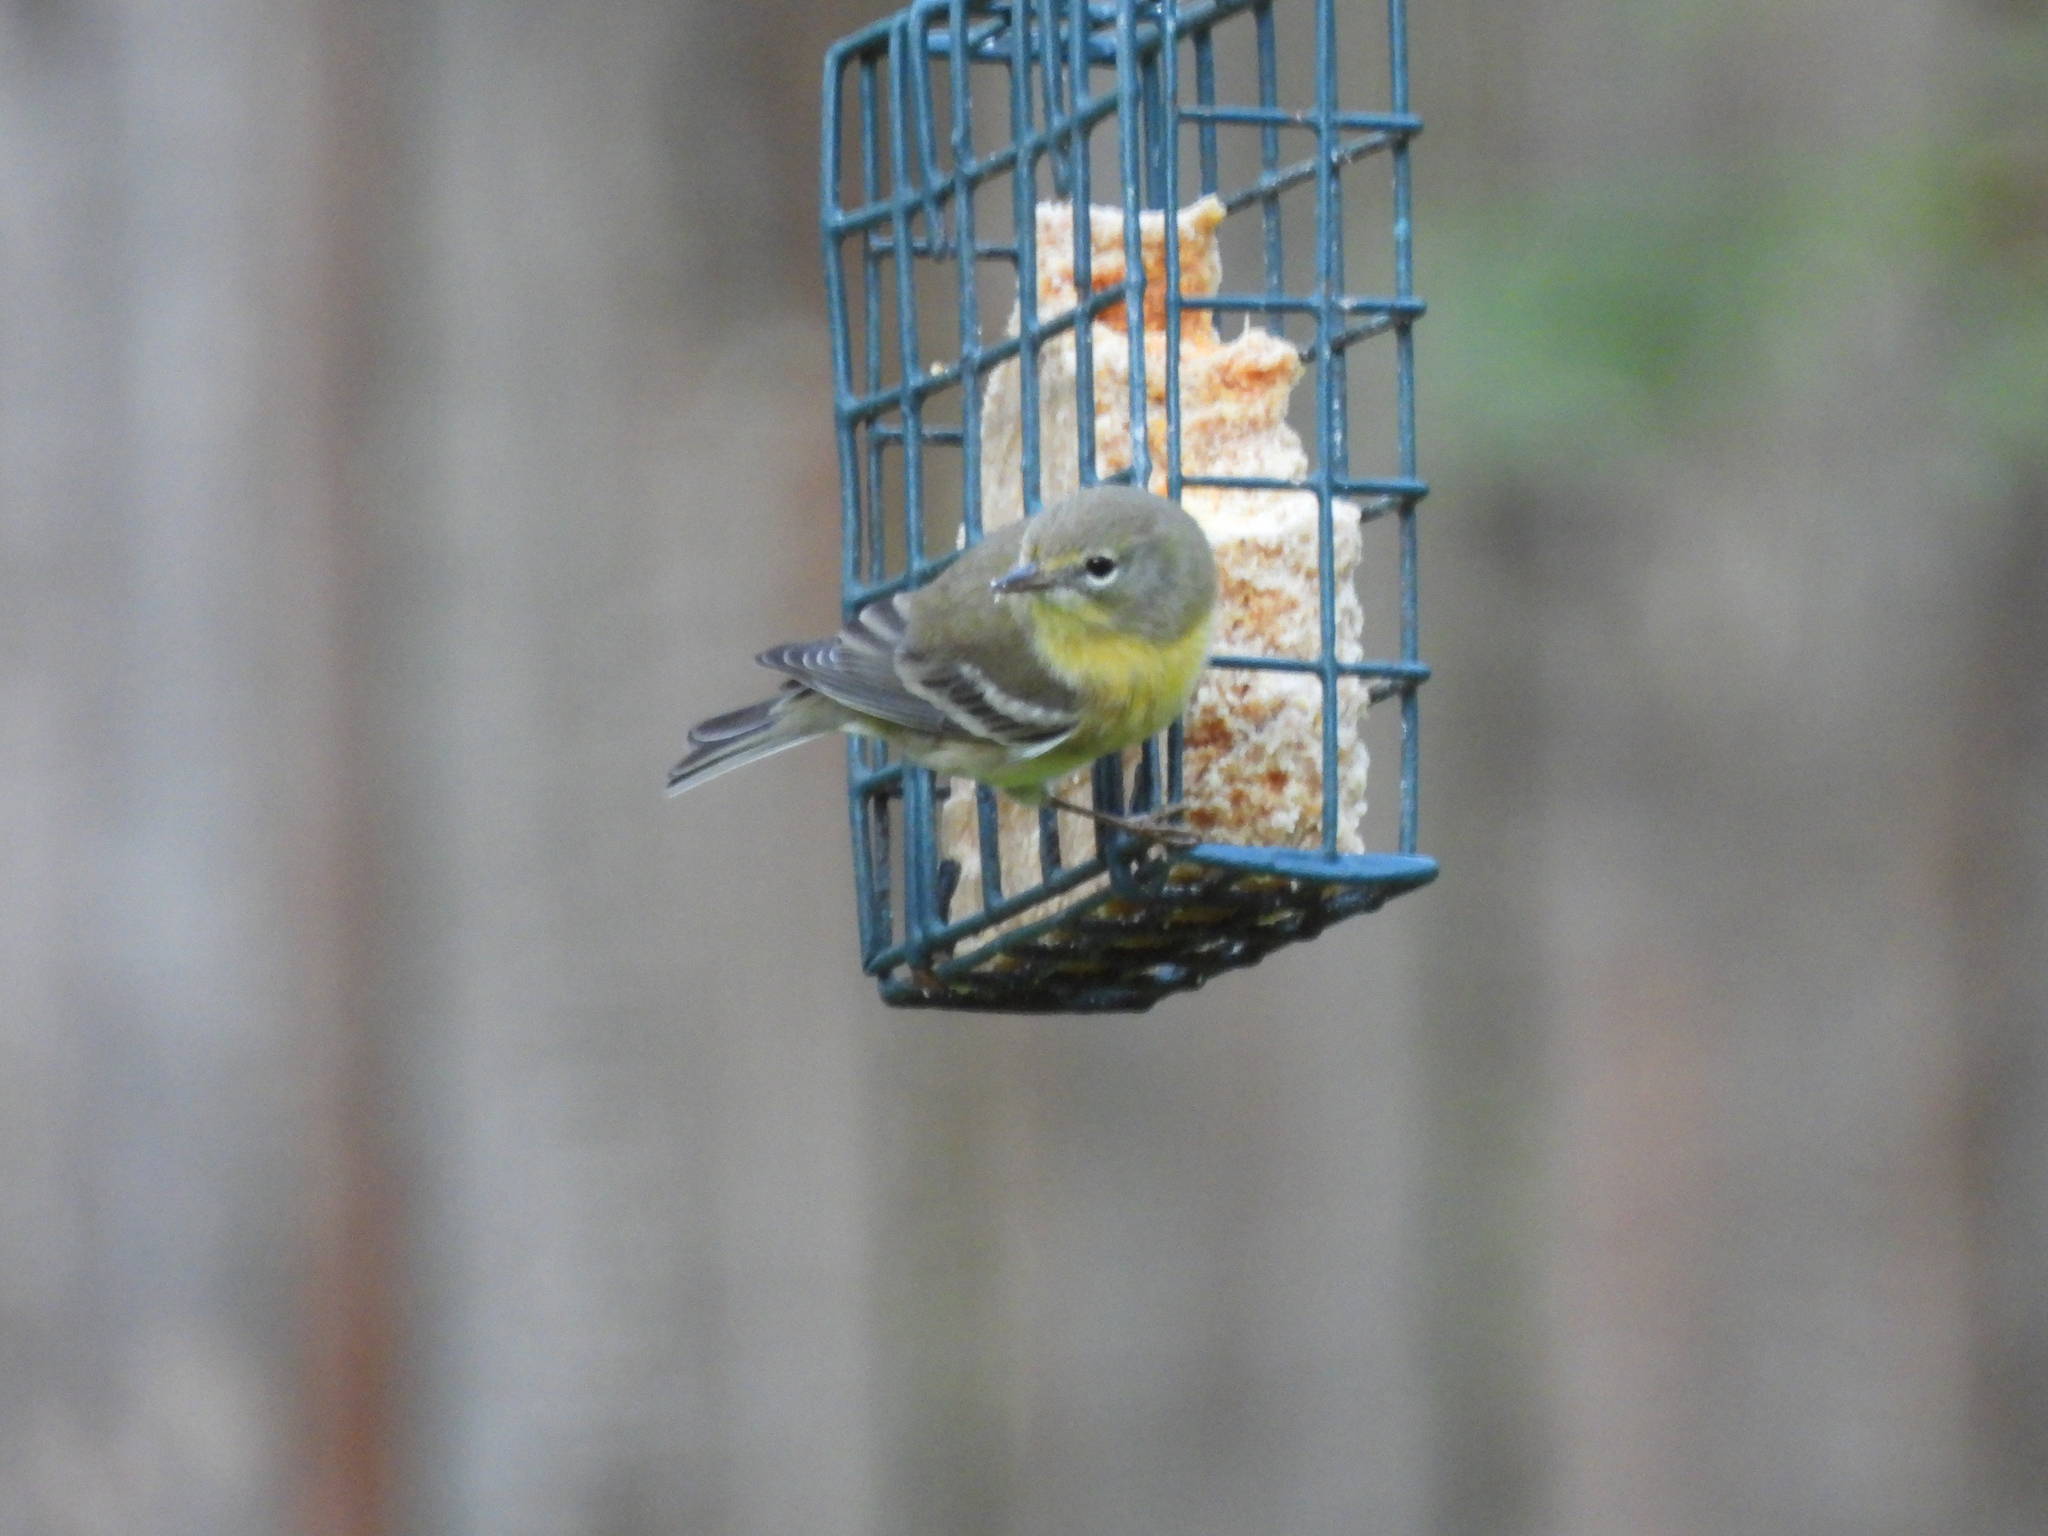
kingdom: Animalia
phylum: Chordata
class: Aves
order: Passeriformes
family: Parulidae
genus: Setophaga
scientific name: Setophaga pinus
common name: Pine warbler
